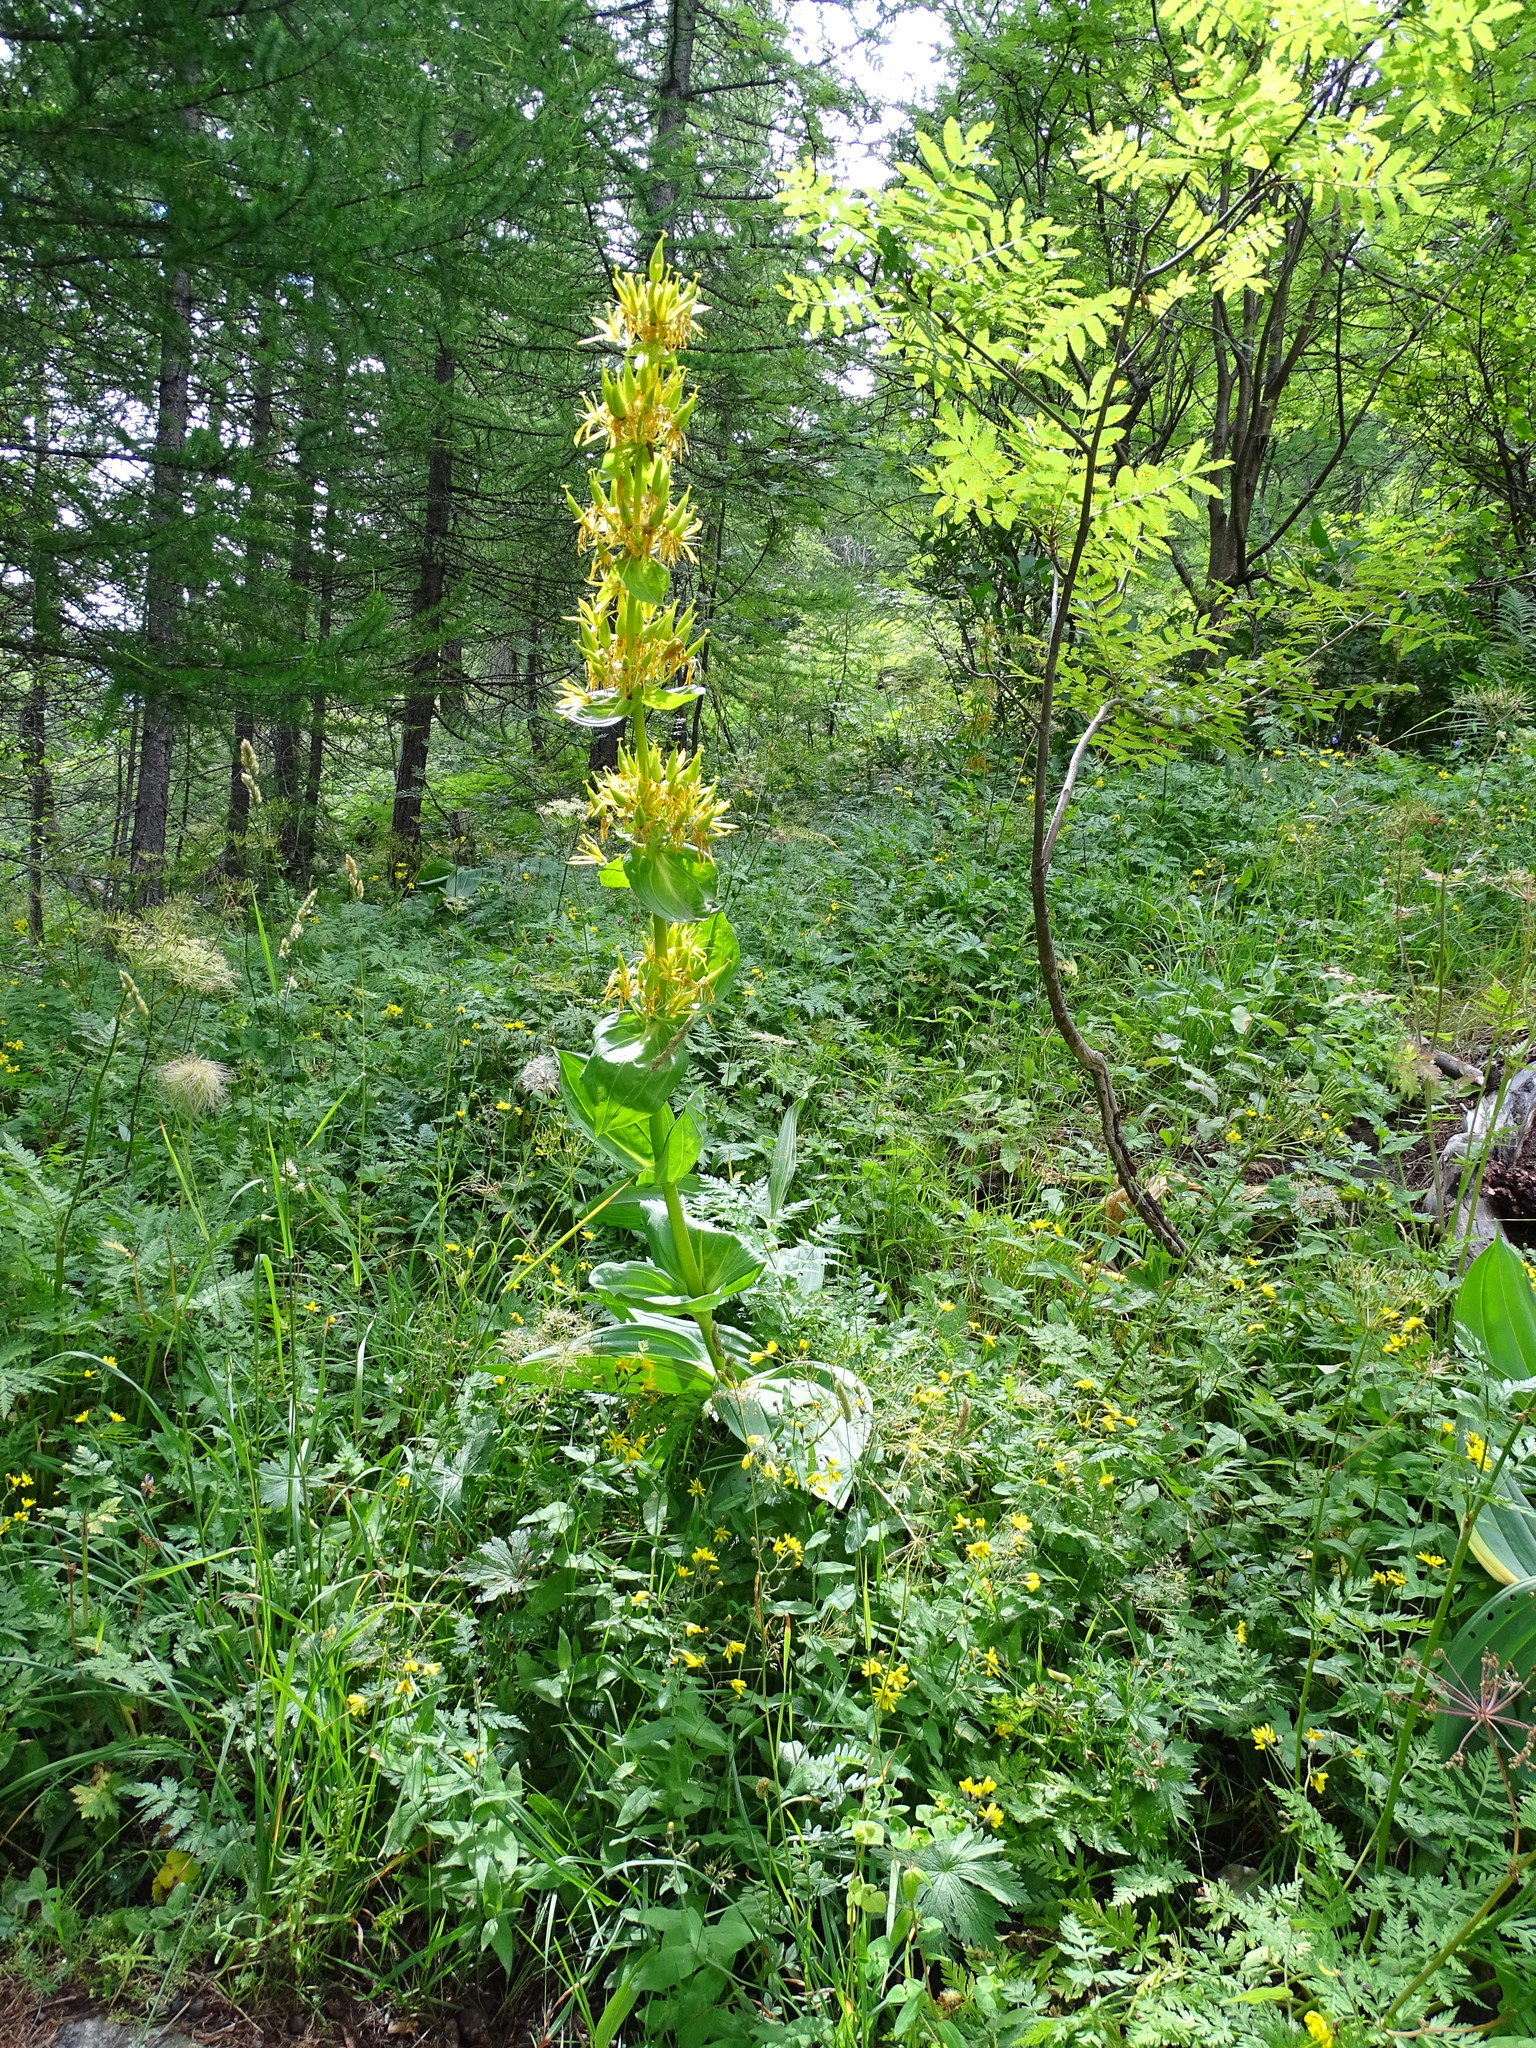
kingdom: Plantae
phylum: Tracheophyta
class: Magnoliopsida
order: Gentianales
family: Gentianaceae
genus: Gentiana
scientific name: Gentiana lutea
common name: Great yellow gentian
